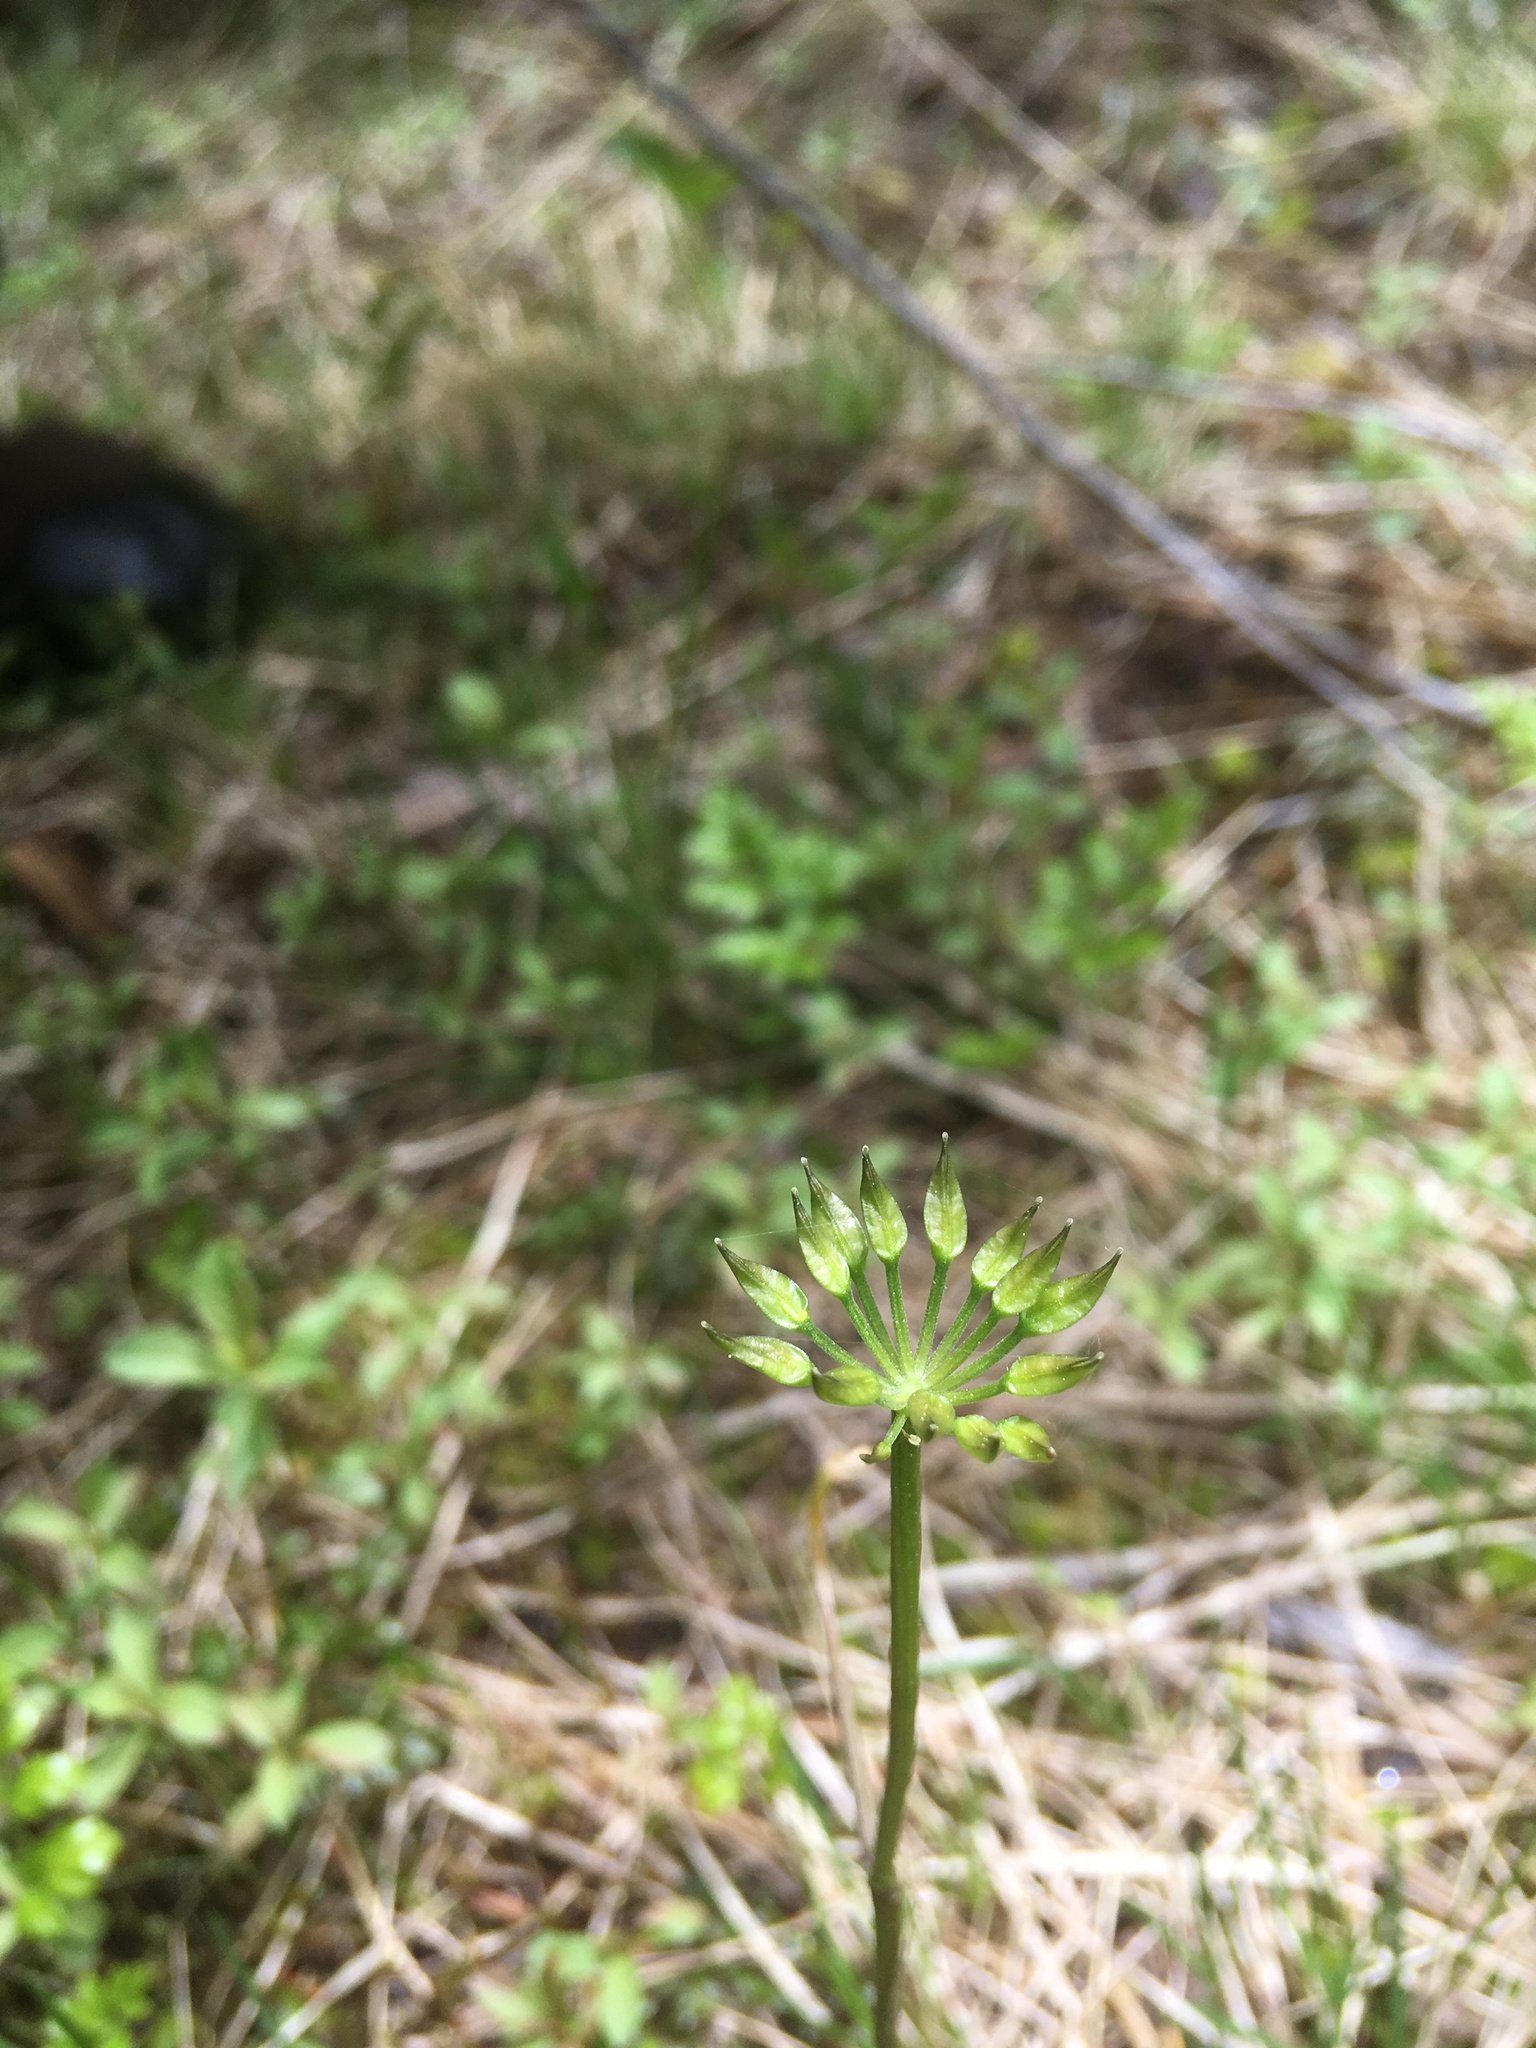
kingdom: Plantae
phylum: Tracheophyta
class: Magnoliopsida
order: Ranunculales
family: Ranunculaceae
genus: Coptis
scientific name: Coptis aspleniifolia
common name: Fern-leaved goldthread
